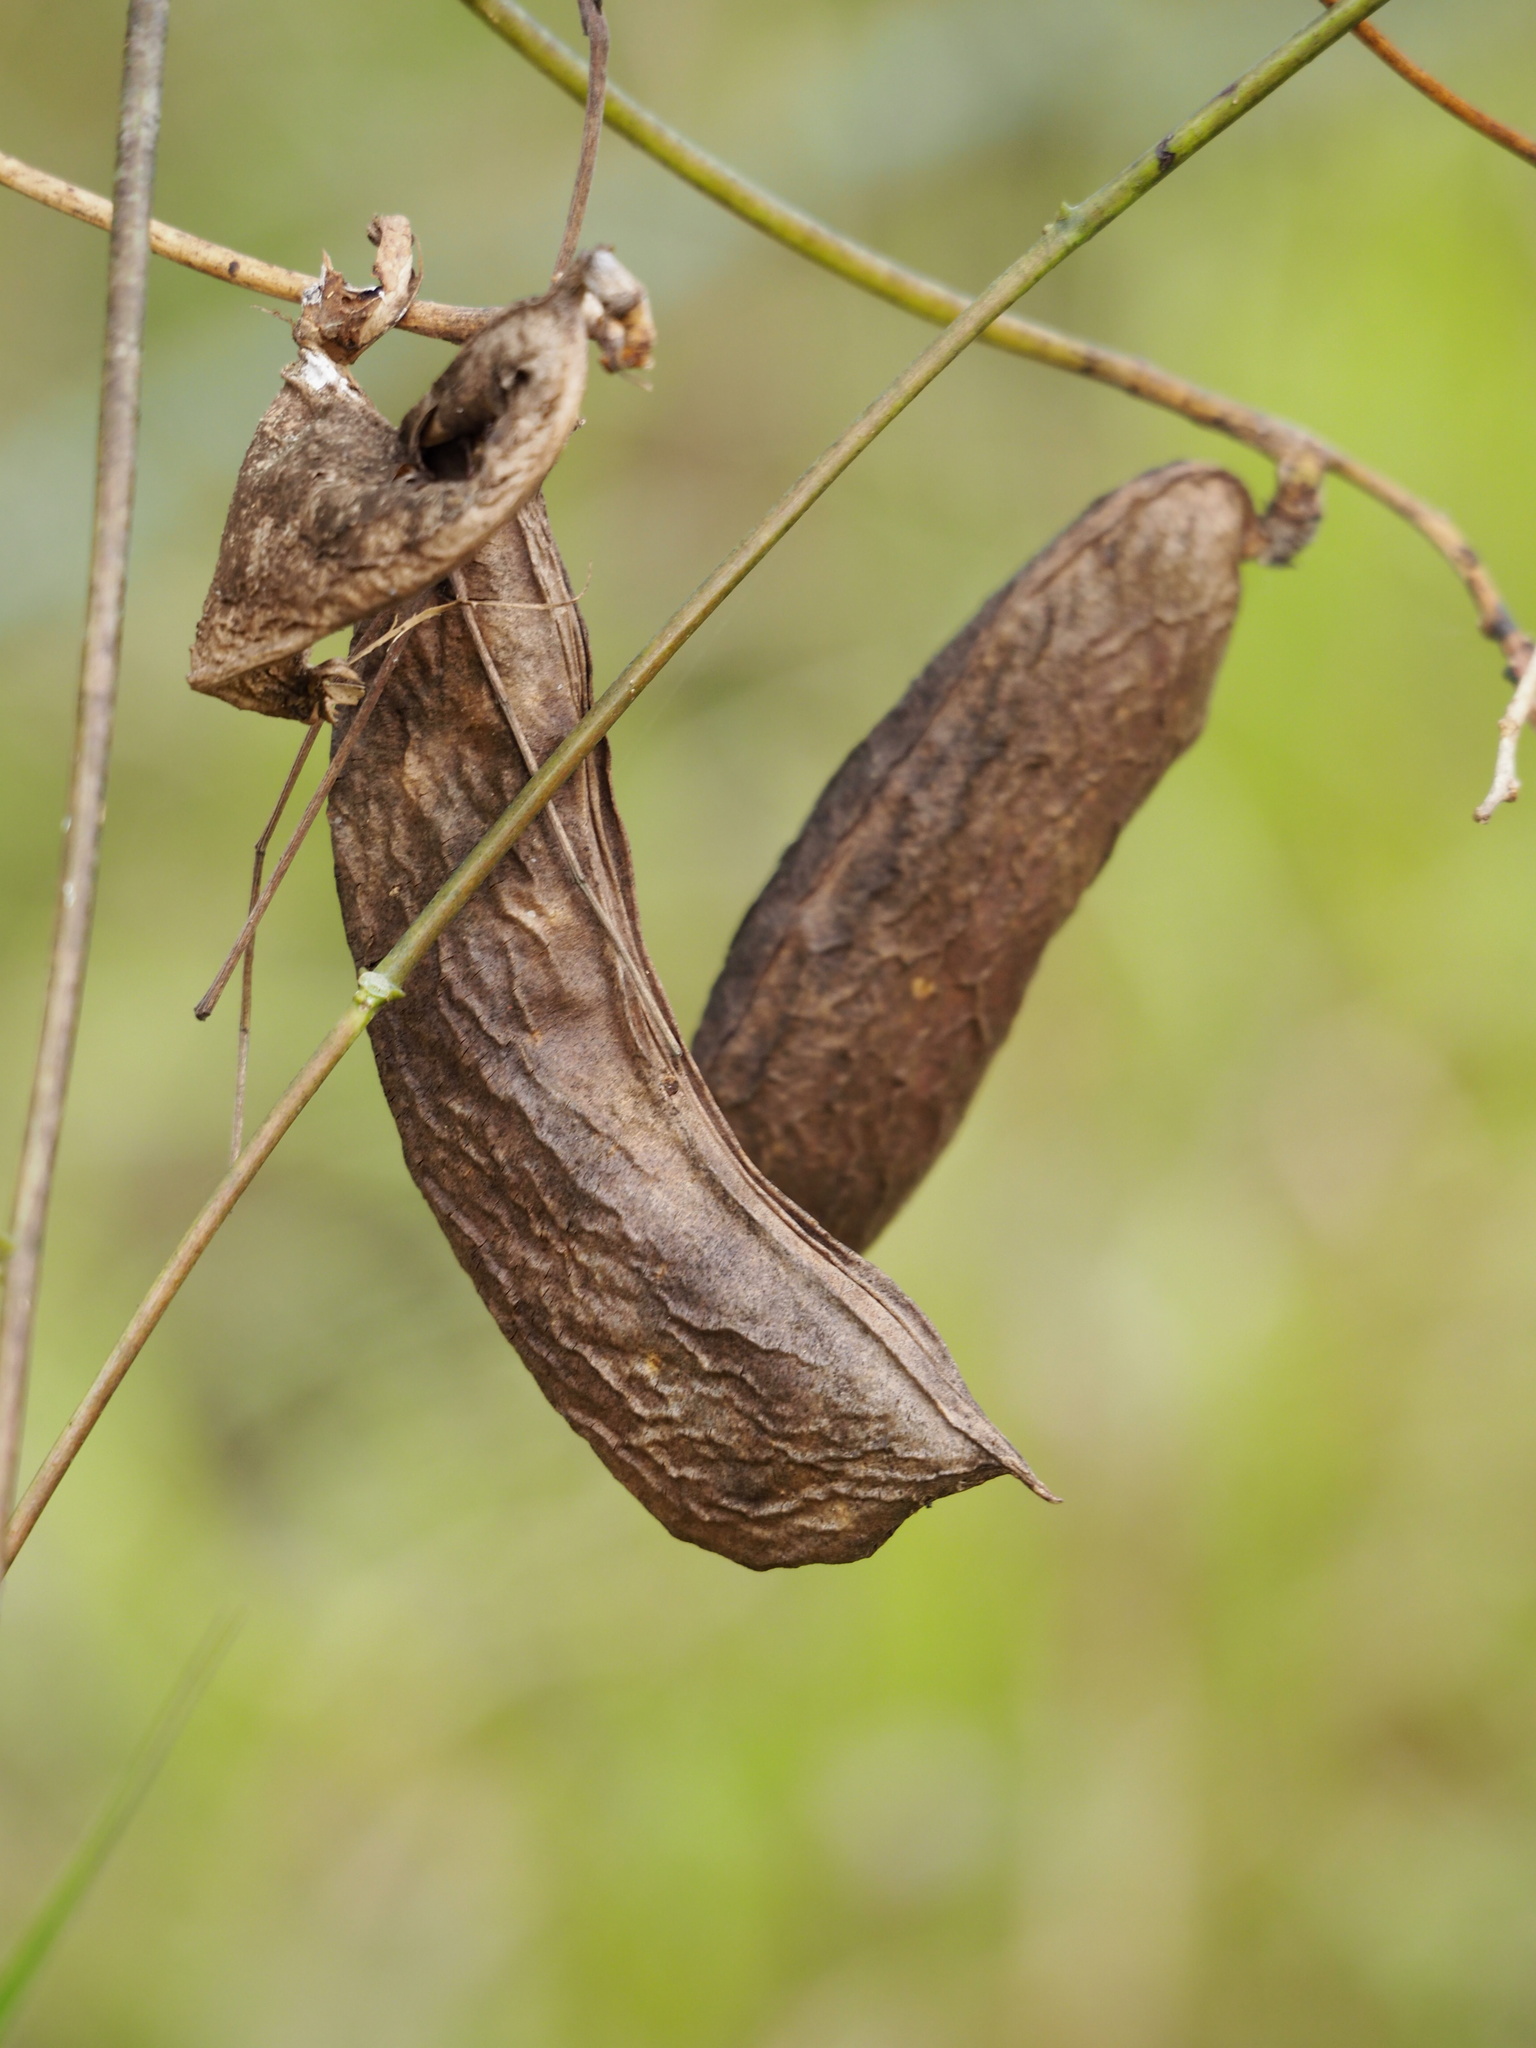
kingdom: Plantae
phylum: Tracheophyta
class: Magnoliopsida
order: Fabales
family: Fabaceae
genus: Canavalia
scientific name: Canavalia lineata
